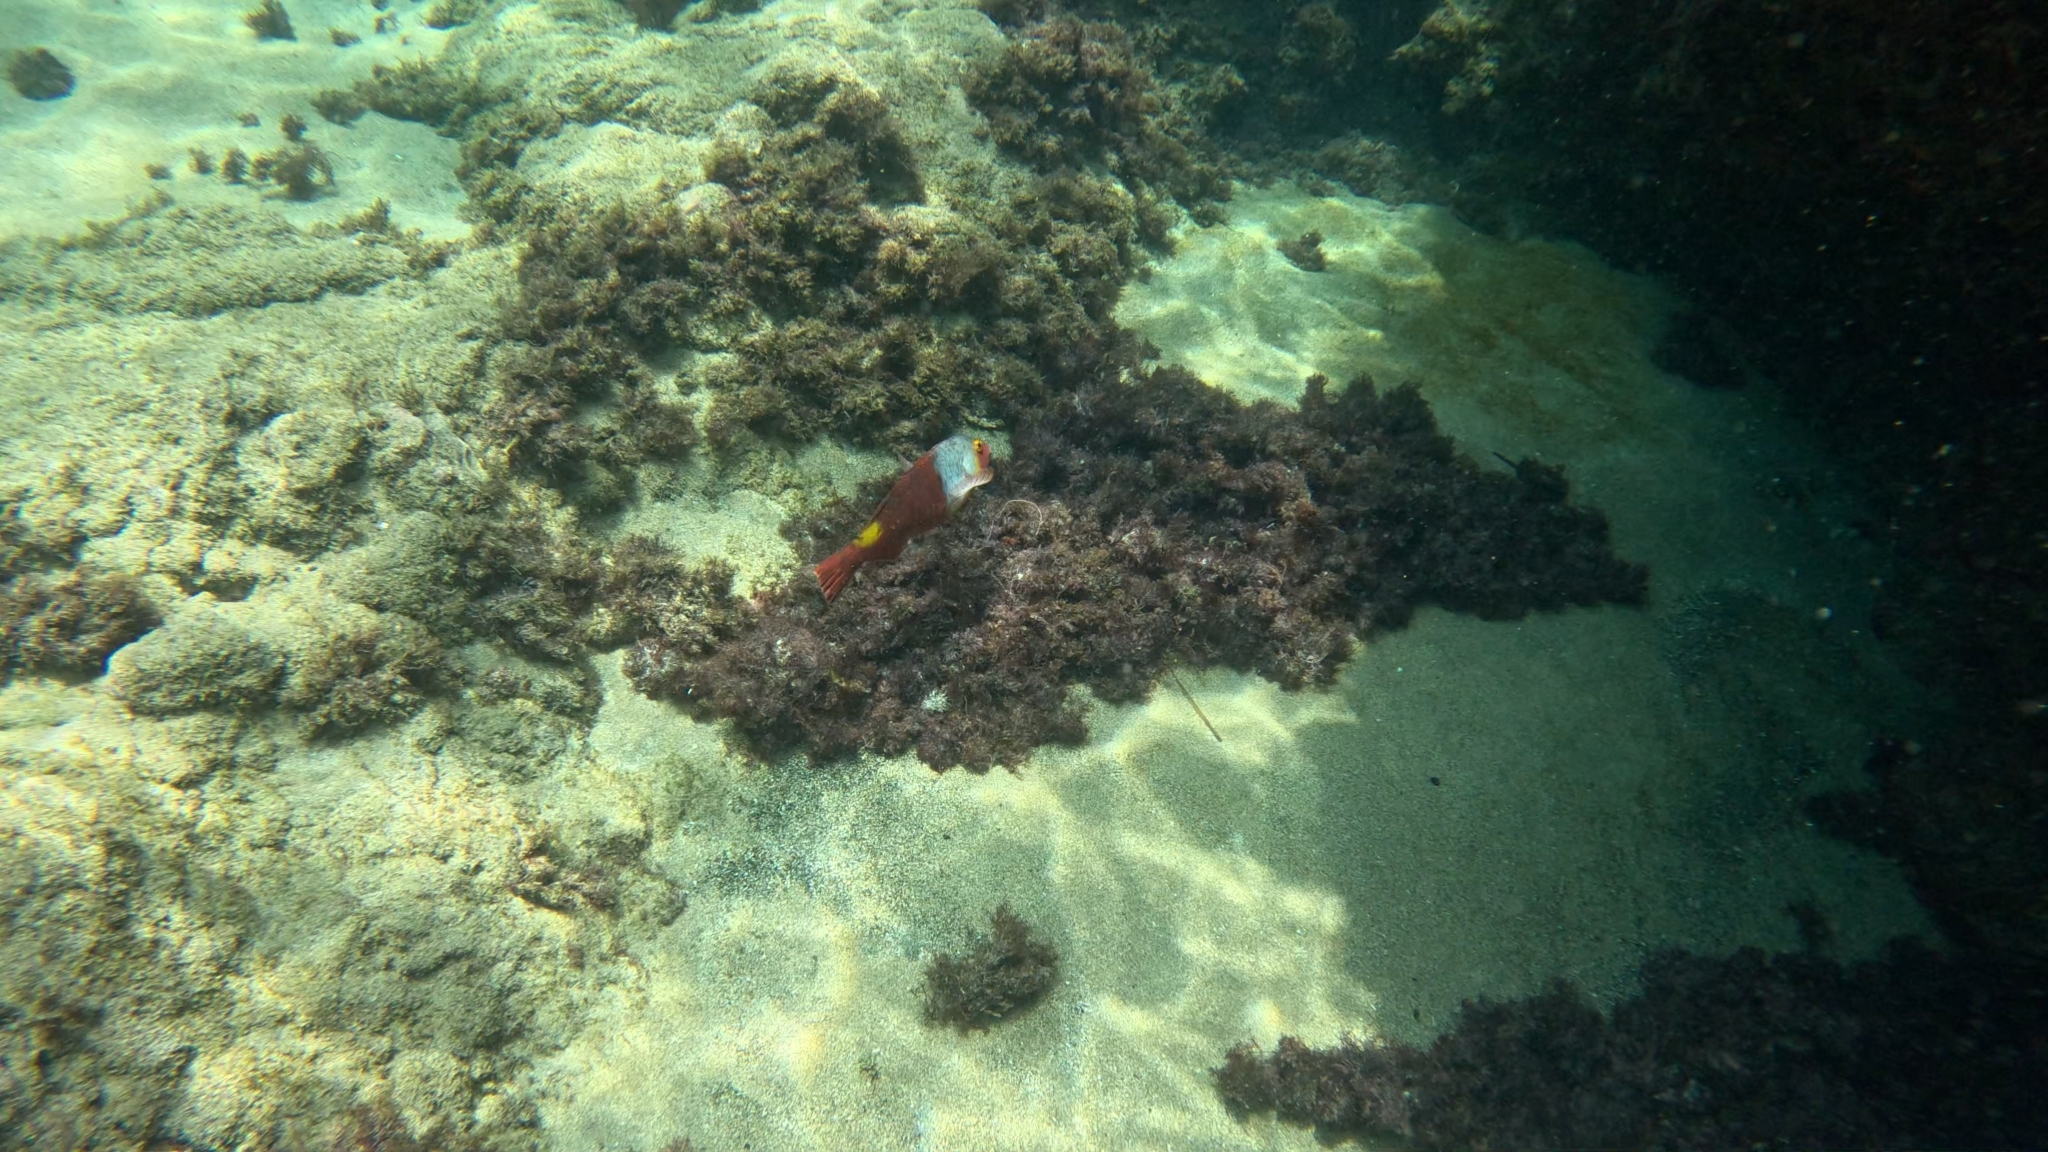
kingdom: Animalia
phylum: Chordata
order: Perciformes
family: Scaridae
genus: Sparisoma
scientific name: Sparisoma cretense
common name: Parrotfish
